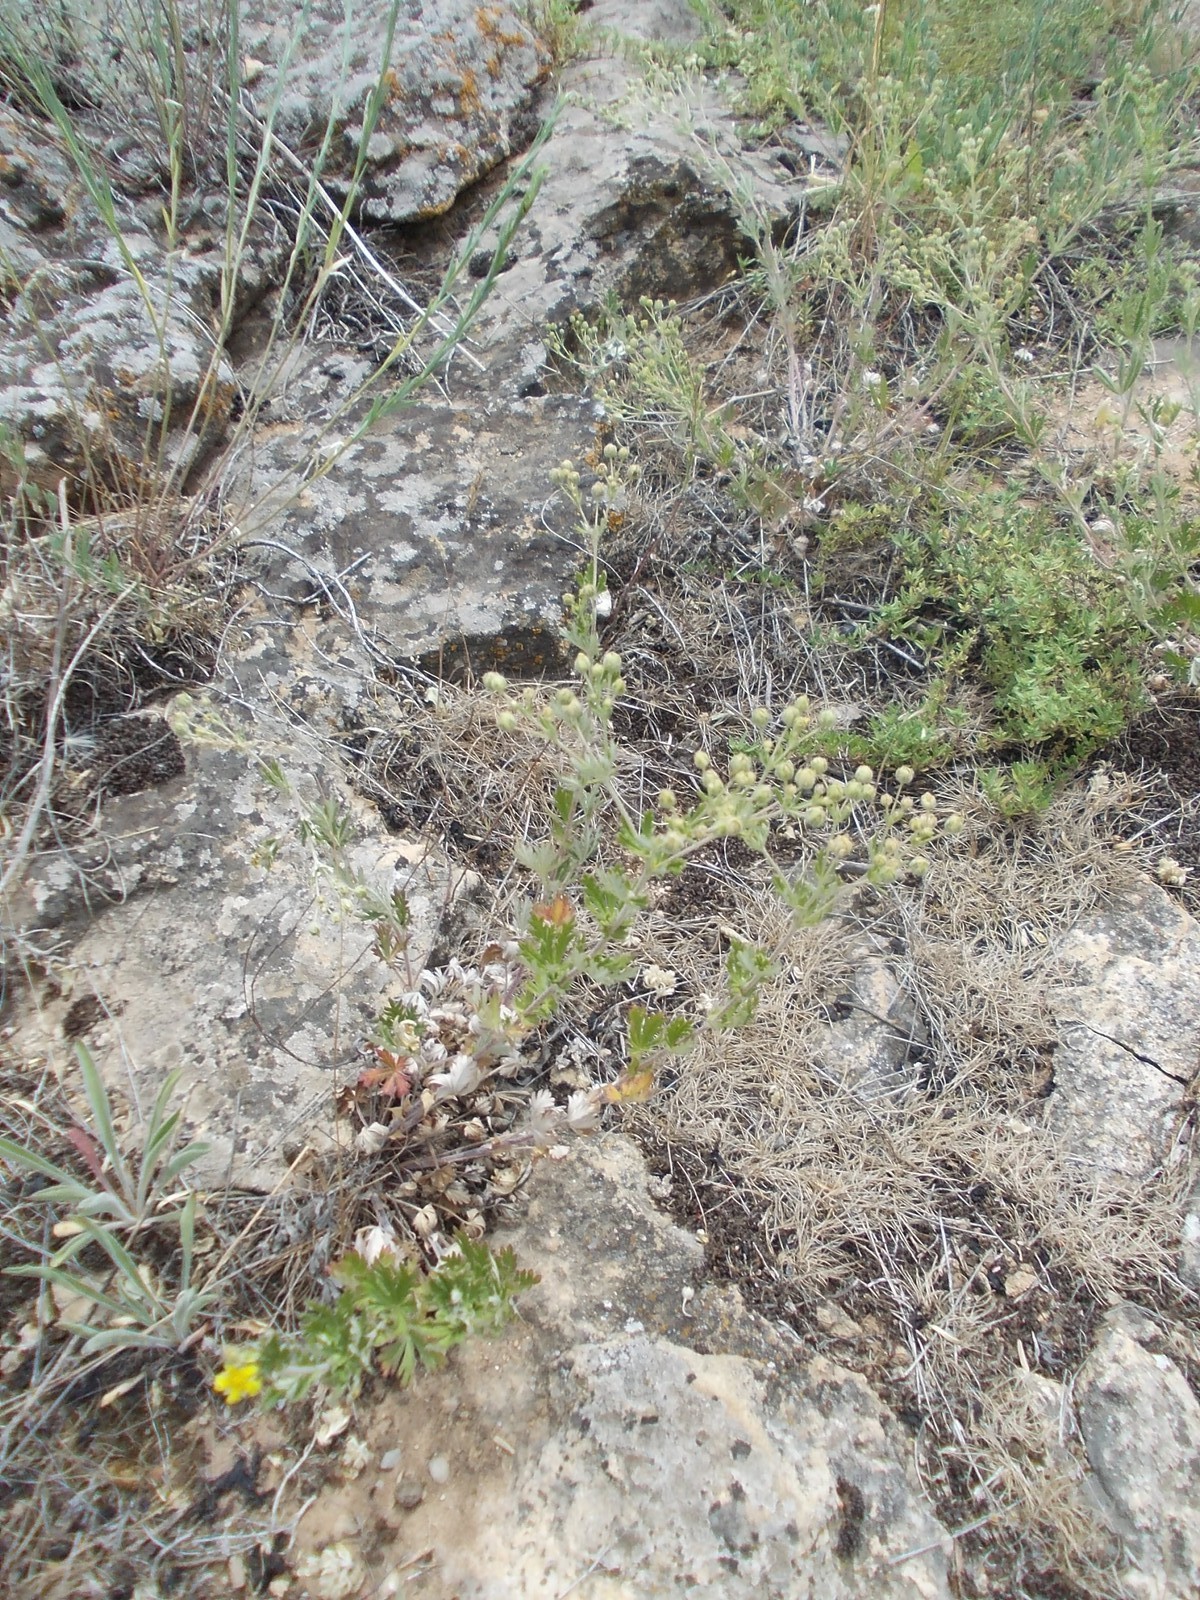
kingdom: Plantae
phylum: Tracheophyta
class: Magnoliopsida
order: Rosales
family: Rosaceae
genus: Potentilla
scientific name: Potentilla argentea
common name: Hoary cinquefoil
